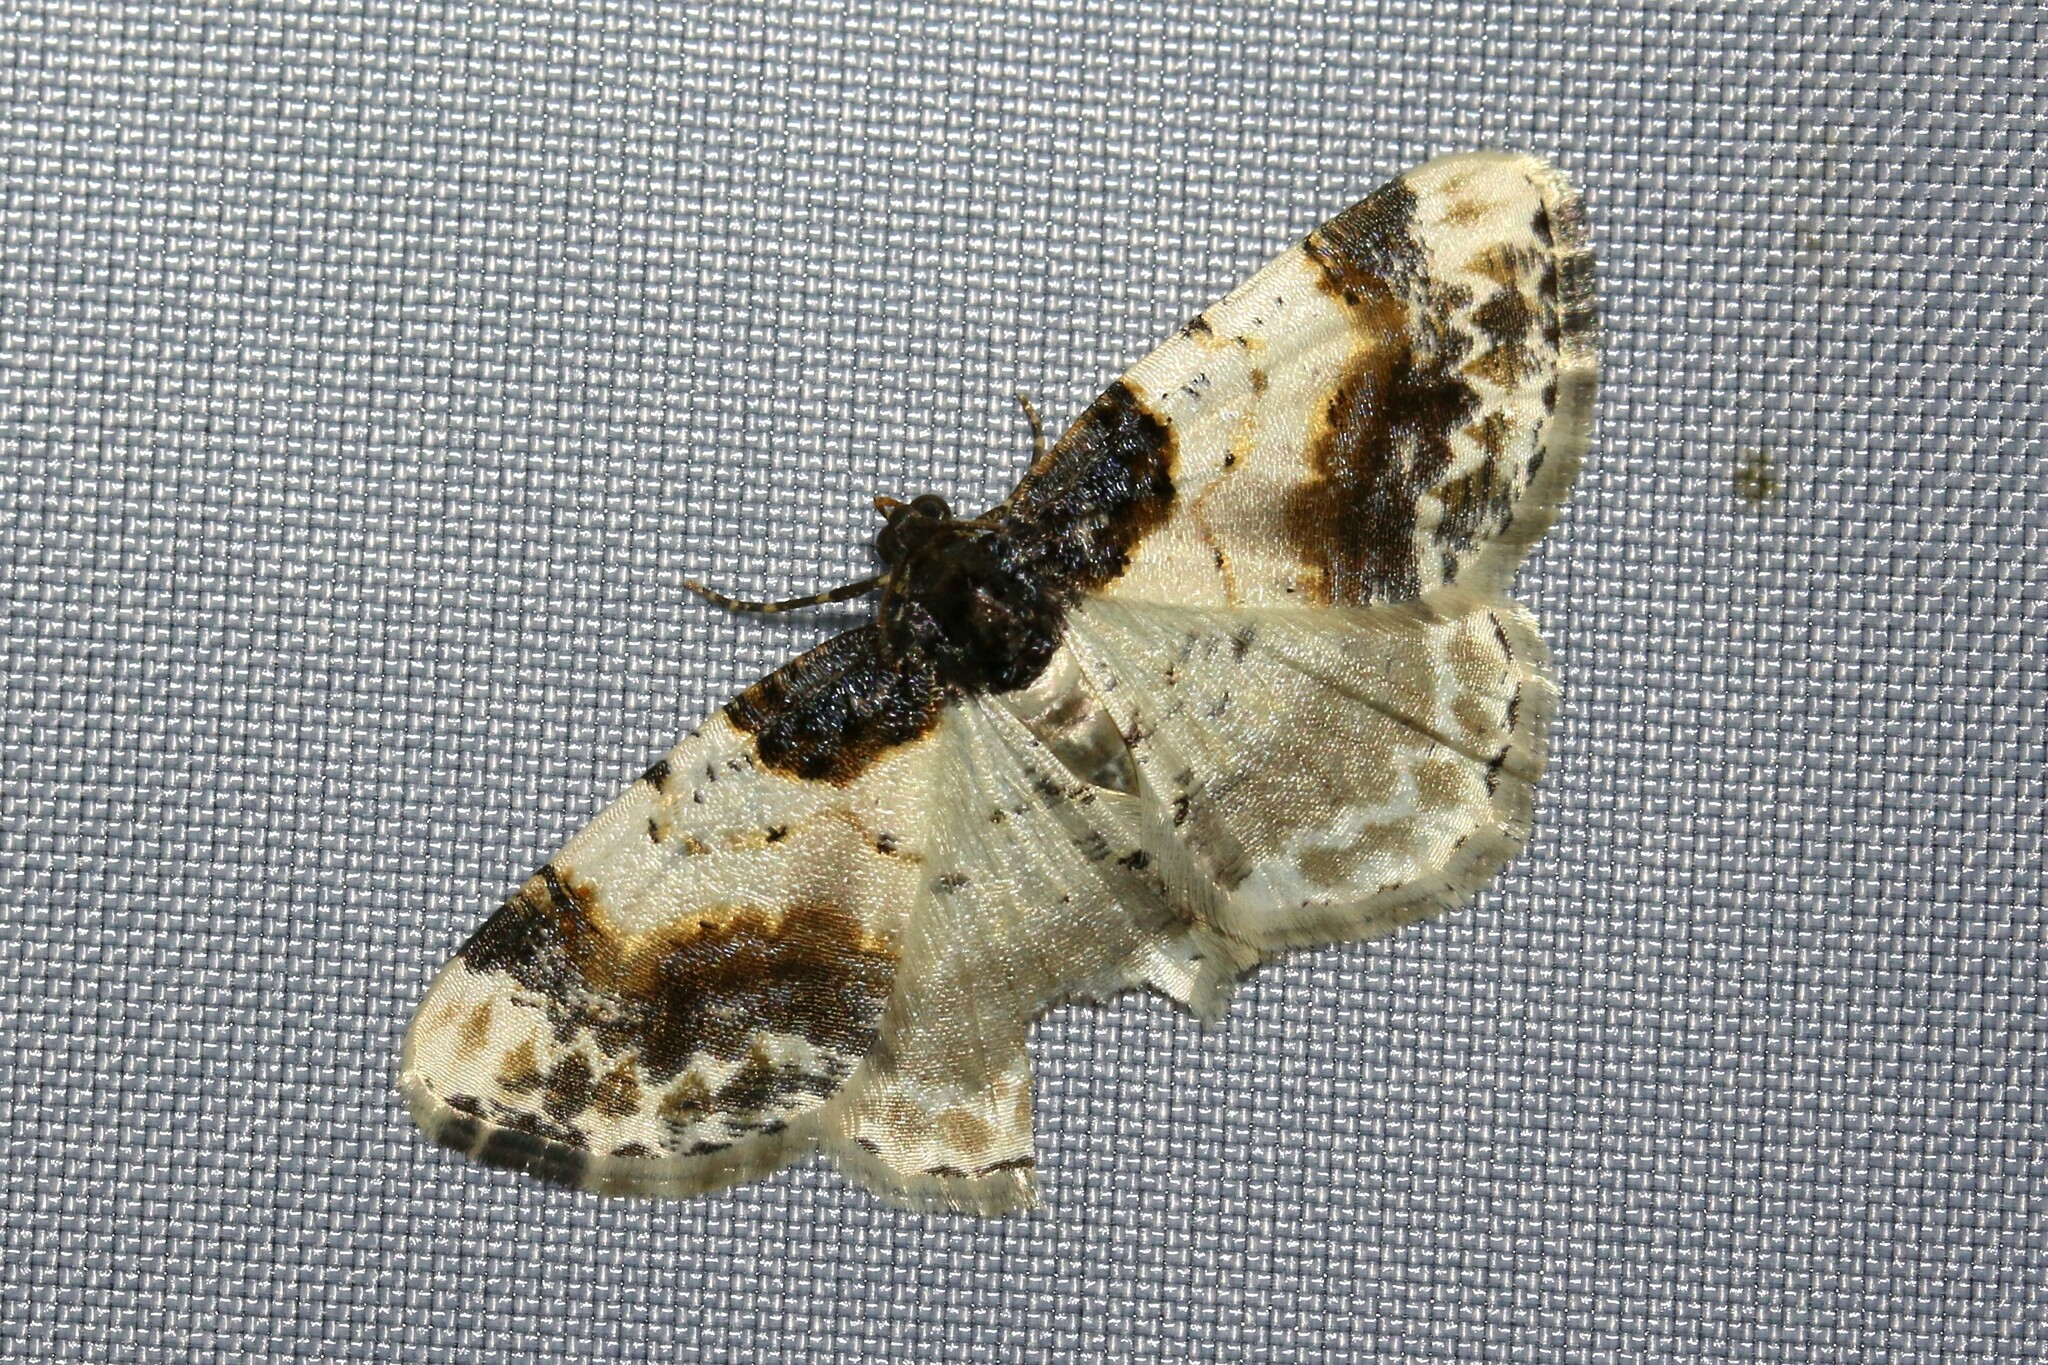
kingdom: Animalia
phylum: Arthropoda
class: Insecta
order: Lepidoptera
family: Geometridae
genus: Ligdia
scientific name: Ligdia adustata
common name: Scorched carpet
